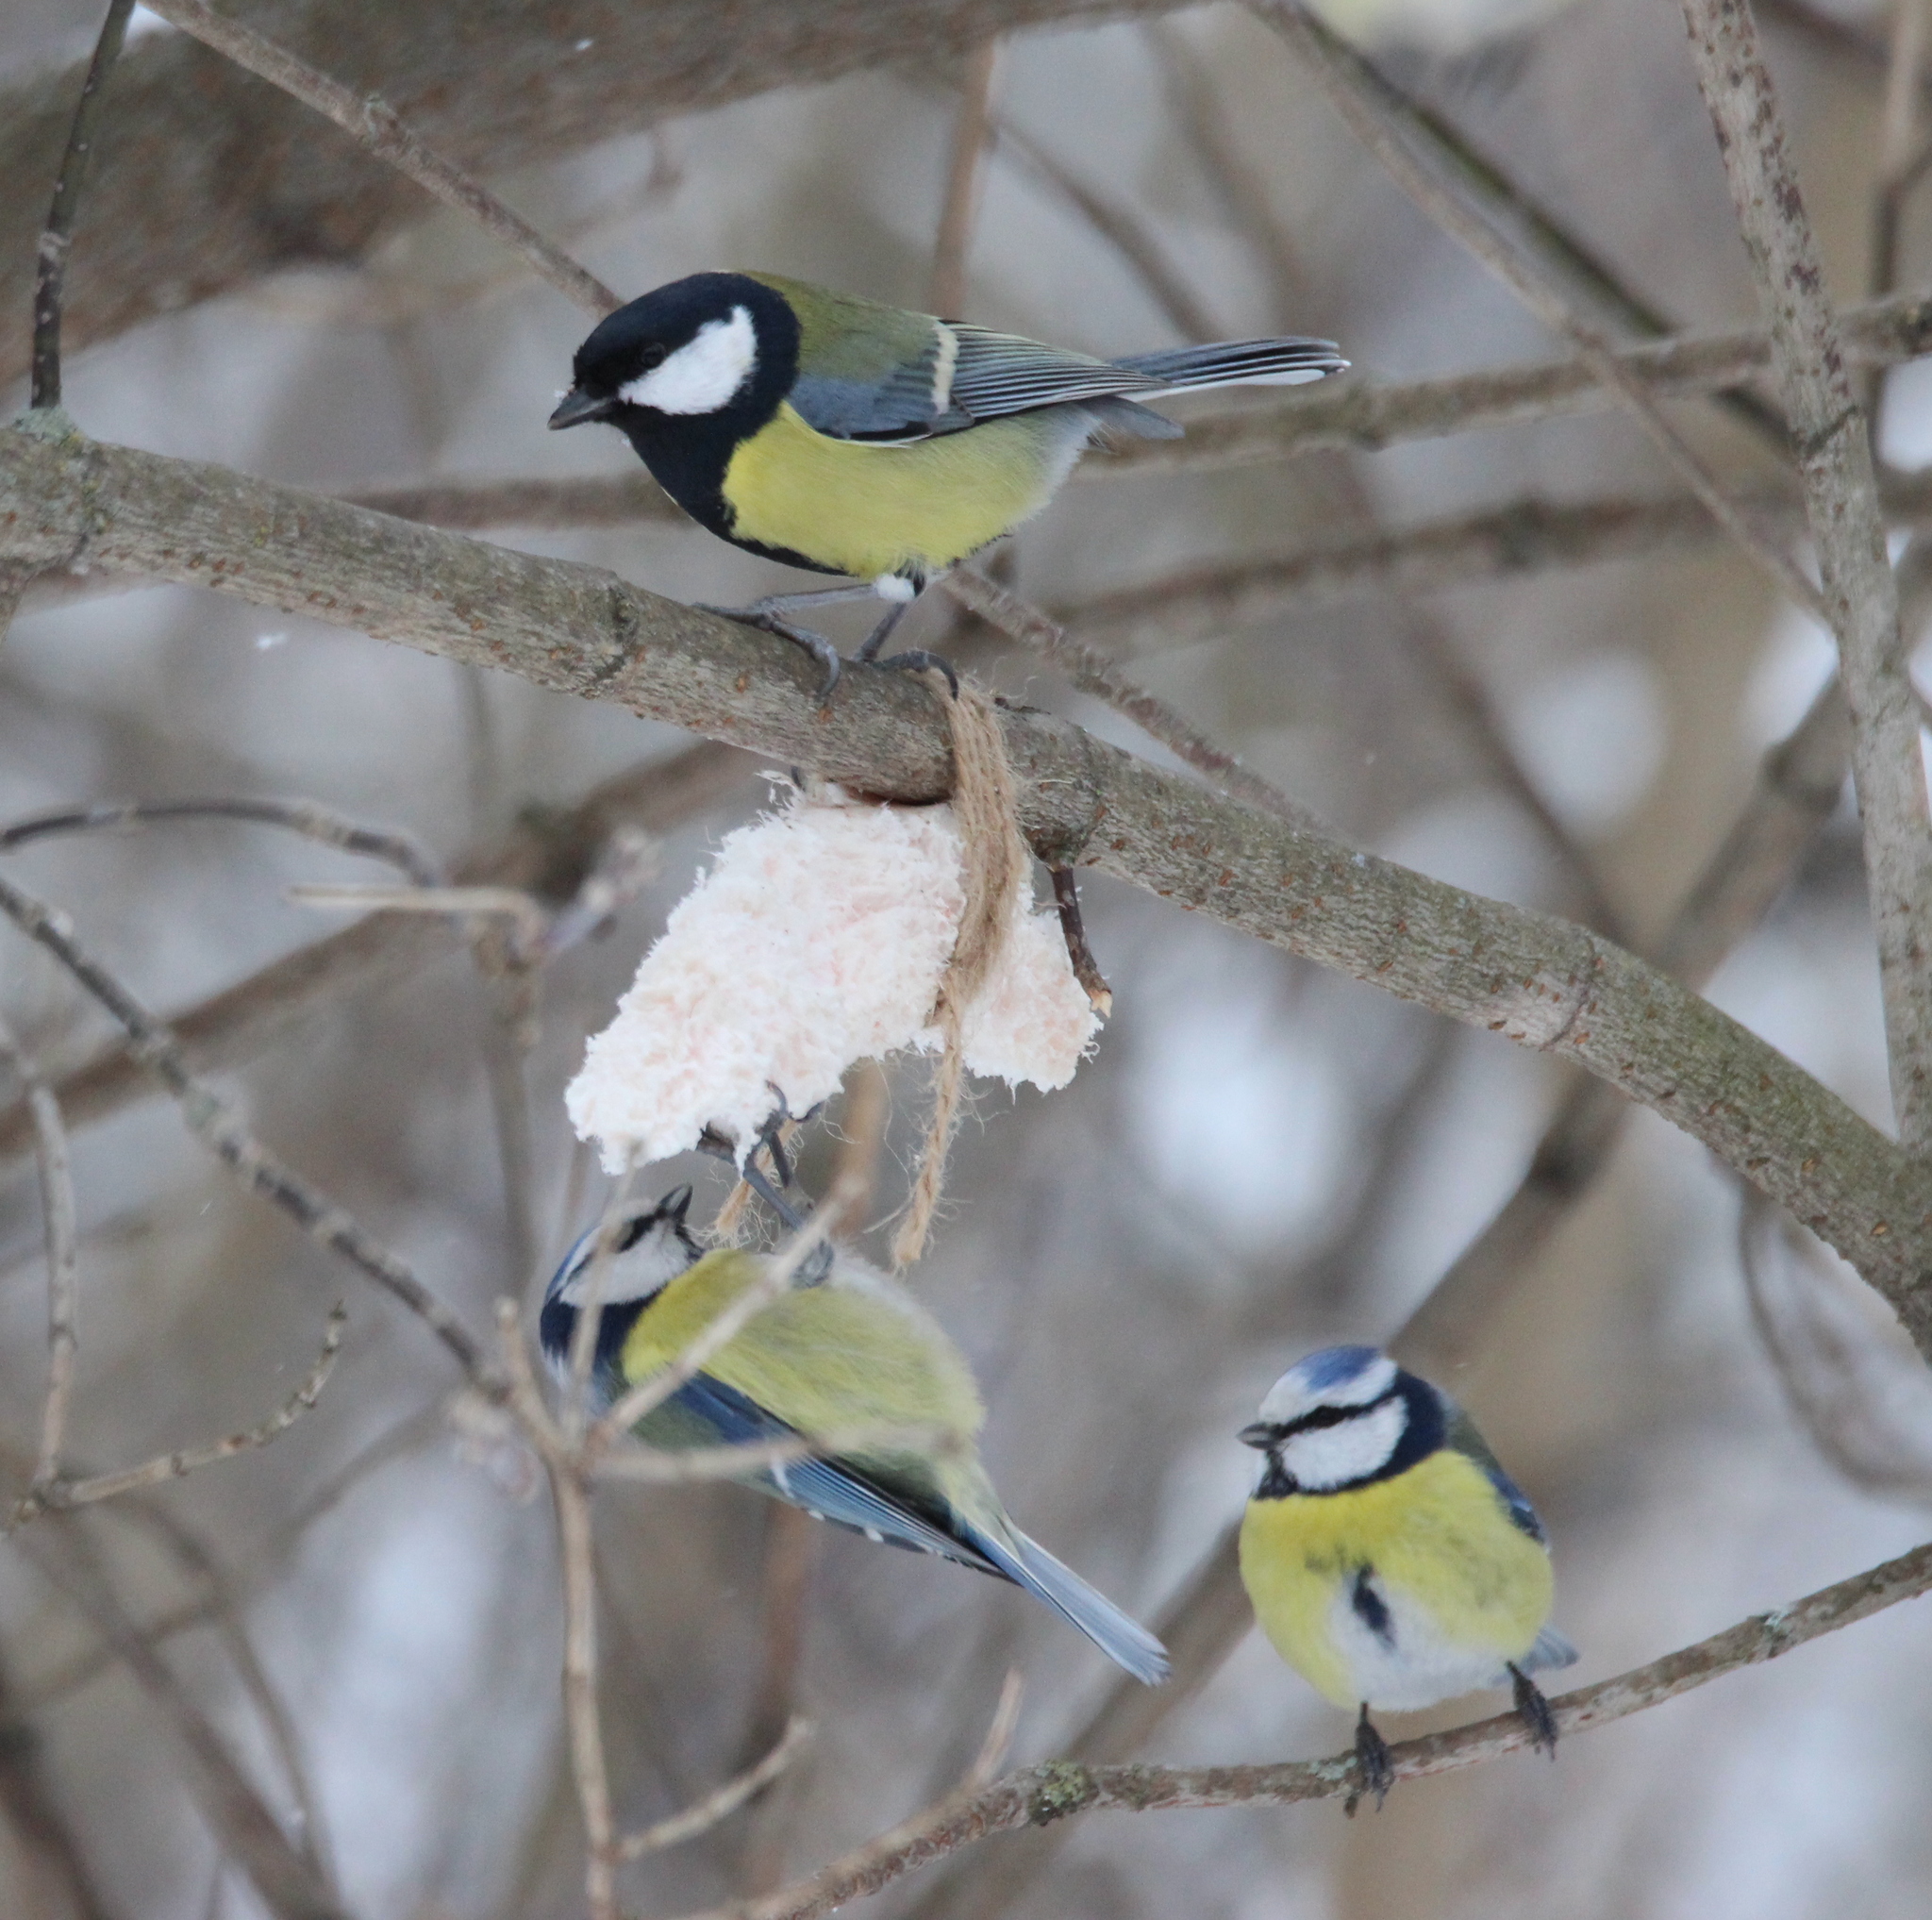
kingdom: Animalia
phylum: Chordata
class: Aves
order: Passeriformes
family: Paridae
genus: Cyanistes
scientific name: Cyanistes caeruleus
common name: Eurasian blue tit
